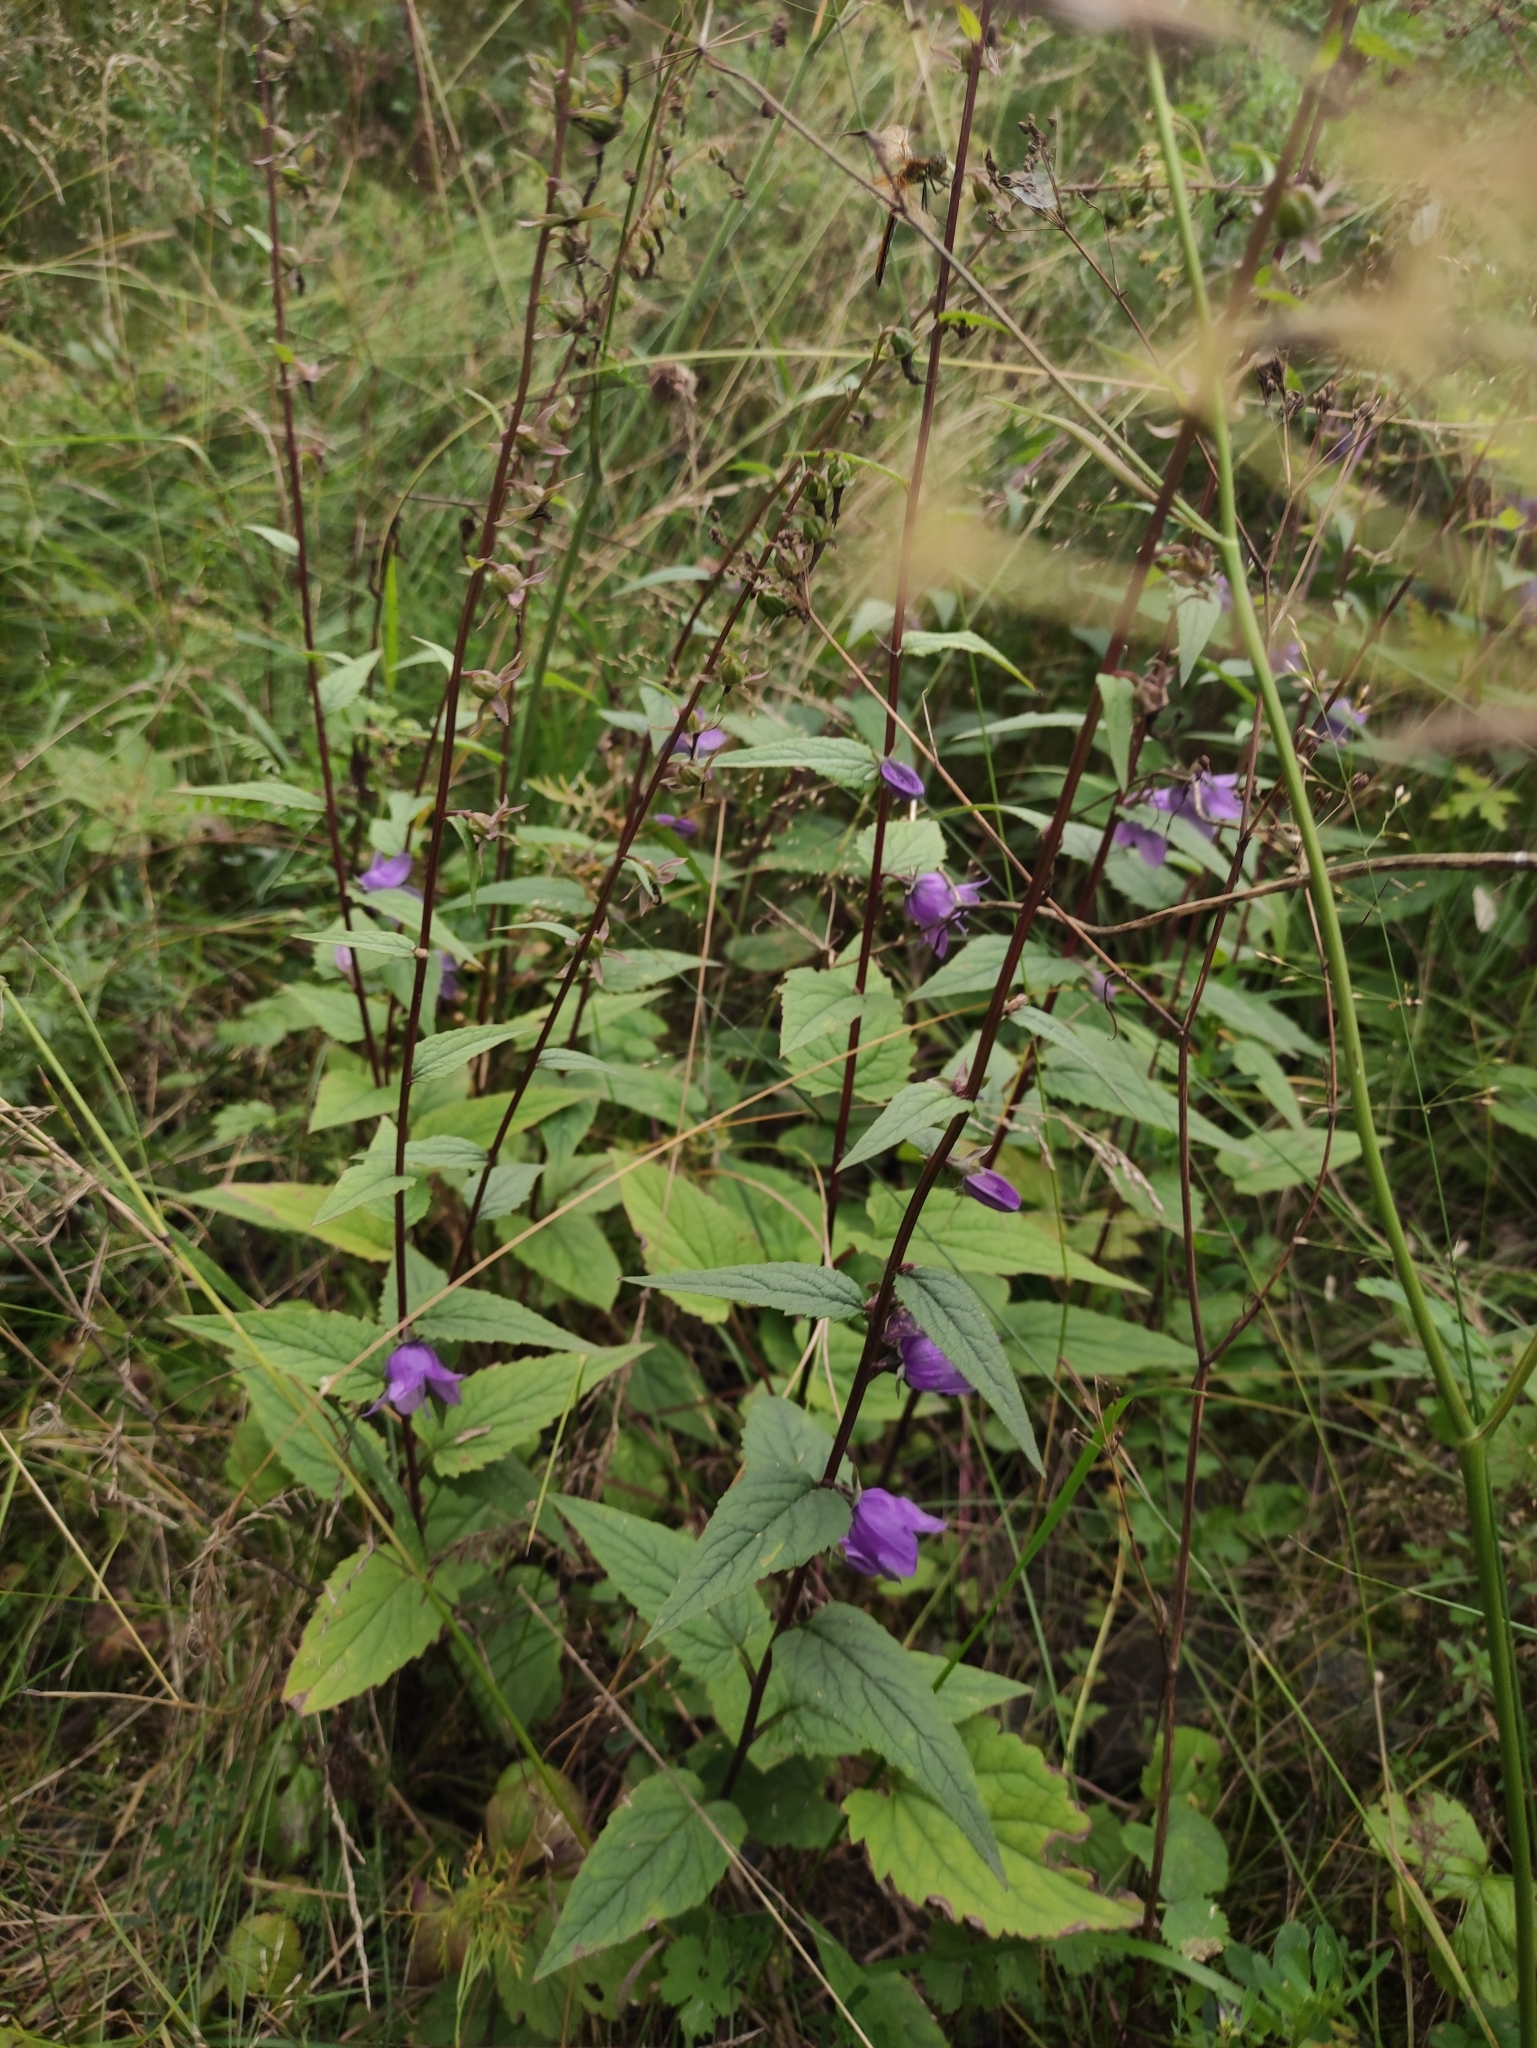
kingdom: Plantae
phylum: Tracheophyta
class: Magnoliopsida
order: Asterales
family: Campanulaceae
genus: Campanula
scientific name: Campanula rapunculoides
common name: Creeping bellflower
